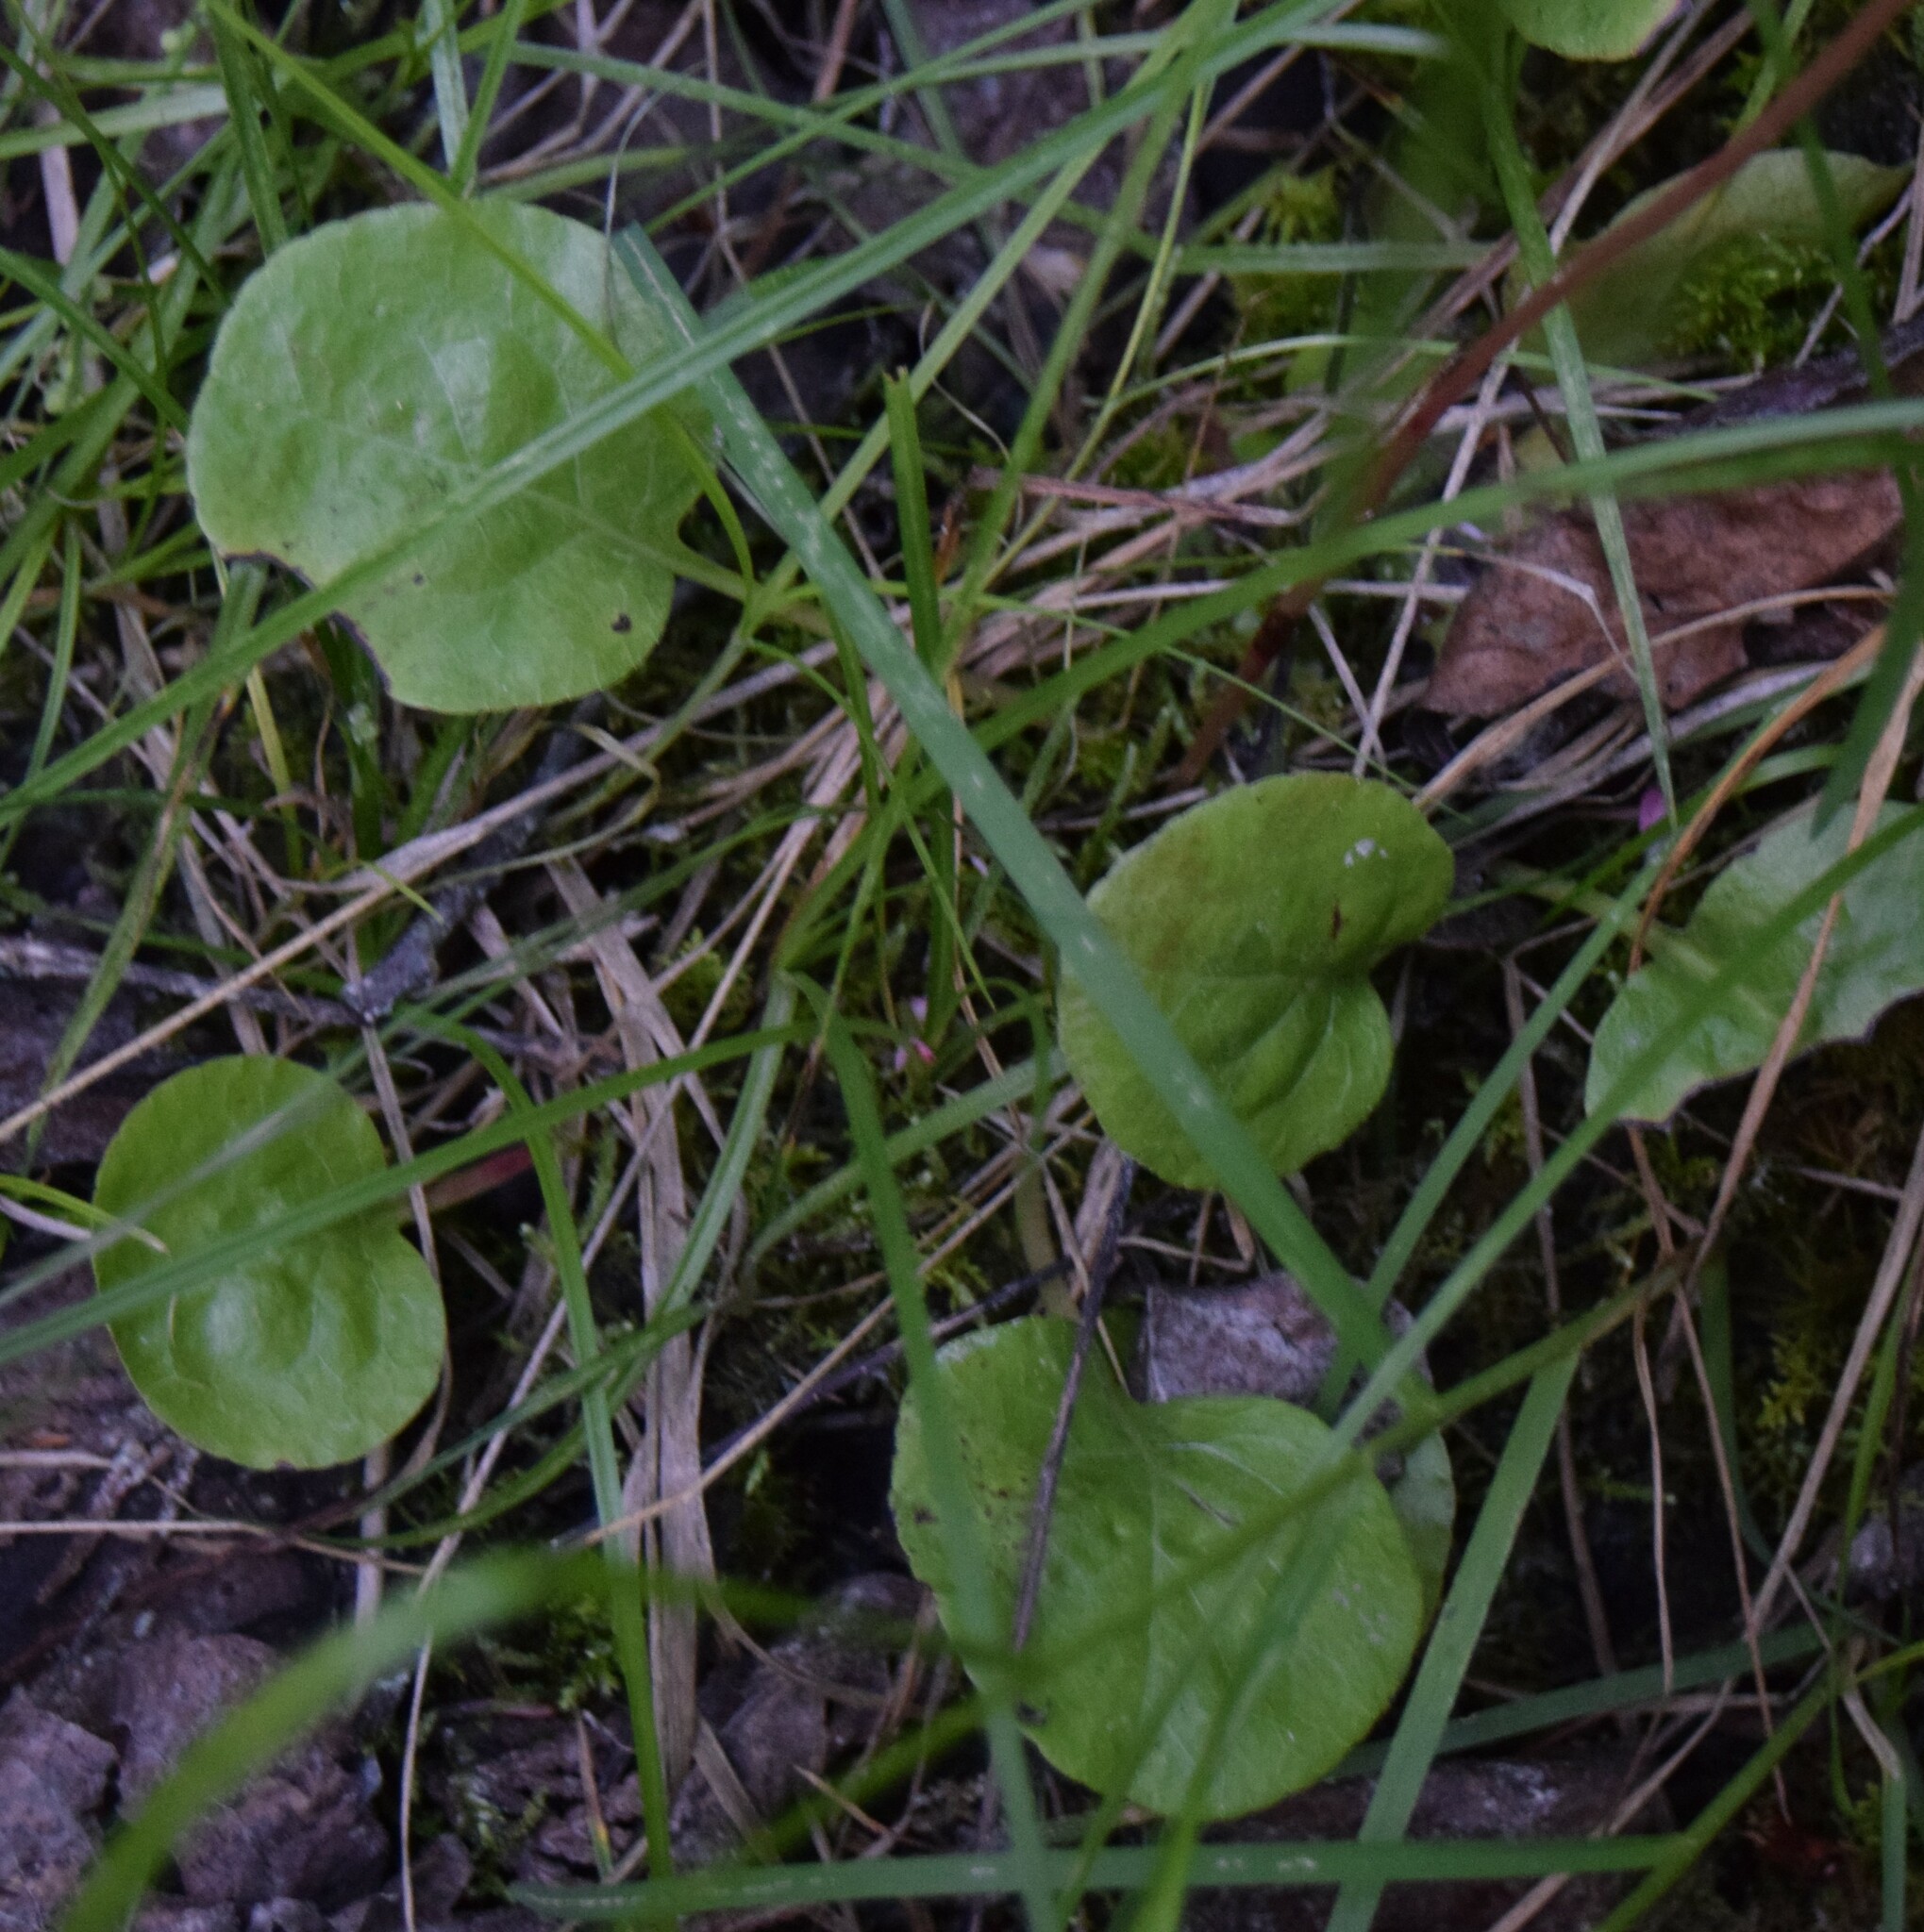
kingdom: Plantae
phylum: Tracheophyta
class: Magnoliopsida
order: Ericales
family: Ericaceae
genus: Pyrola
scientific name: Pyrola asarifolia
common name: Bog wintergreen
